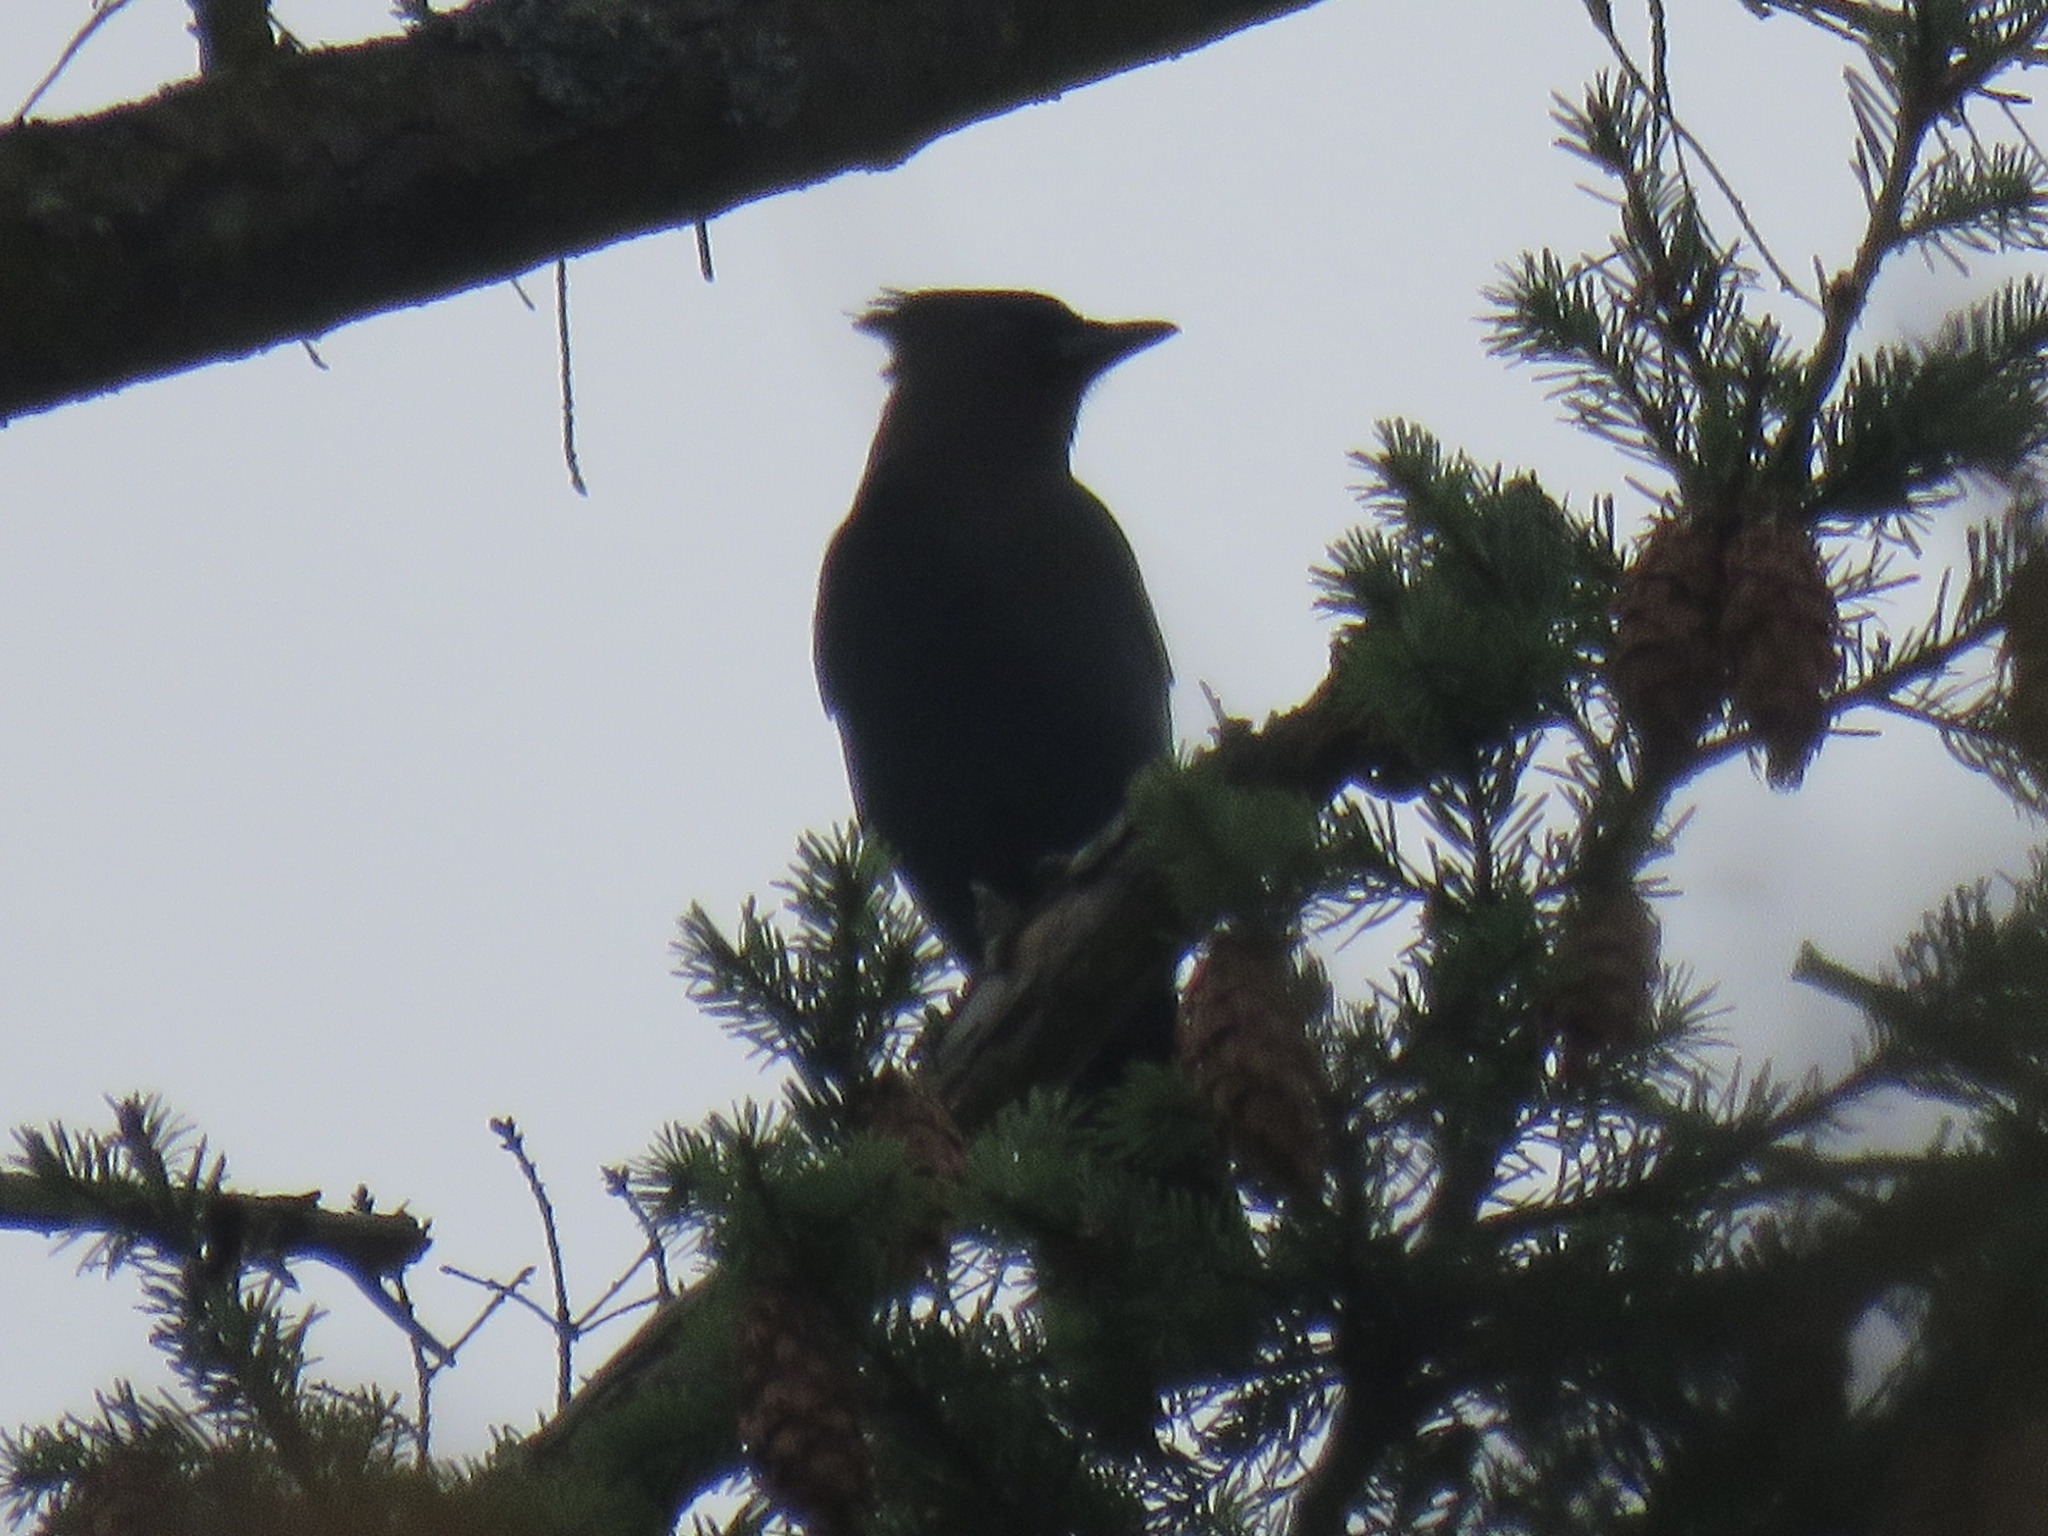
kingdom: Animalia
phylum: Chordata
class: Aves
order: Passeriformes
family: Corvidae
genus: Cyanocitta
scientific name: Cyanocitta stelleri
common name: Steller's jay
